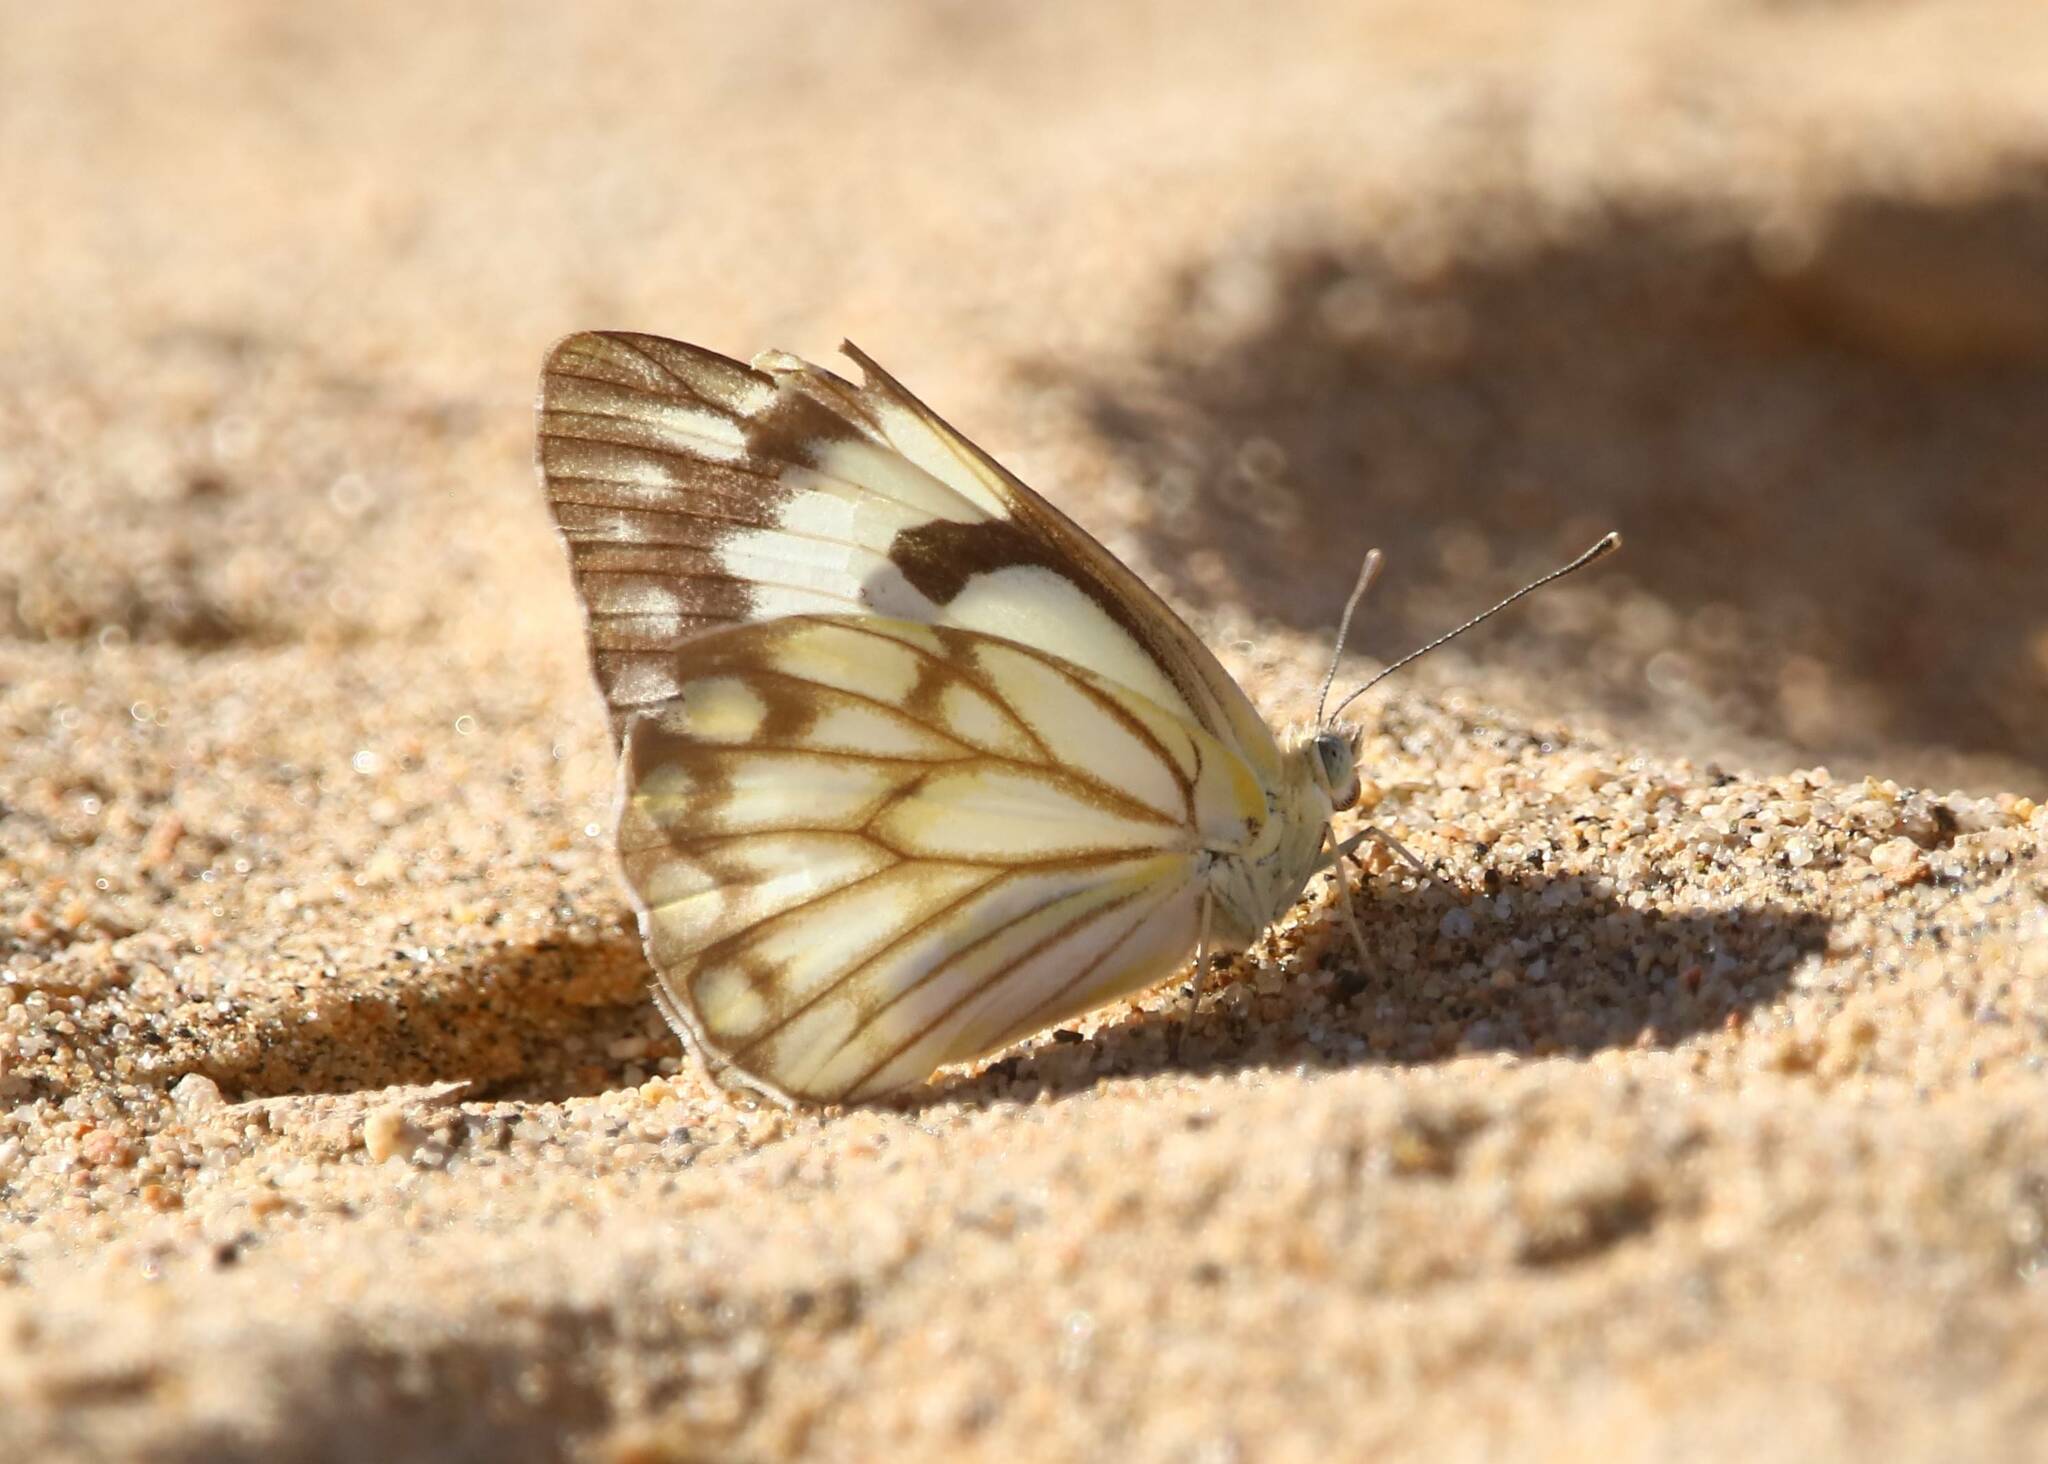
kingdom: Animalia
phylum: Arthropoda
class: Insecta
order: Lepidoptera
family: Pieridae
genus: Belenois
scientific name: Belenois aurota
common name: Brown-veined white
